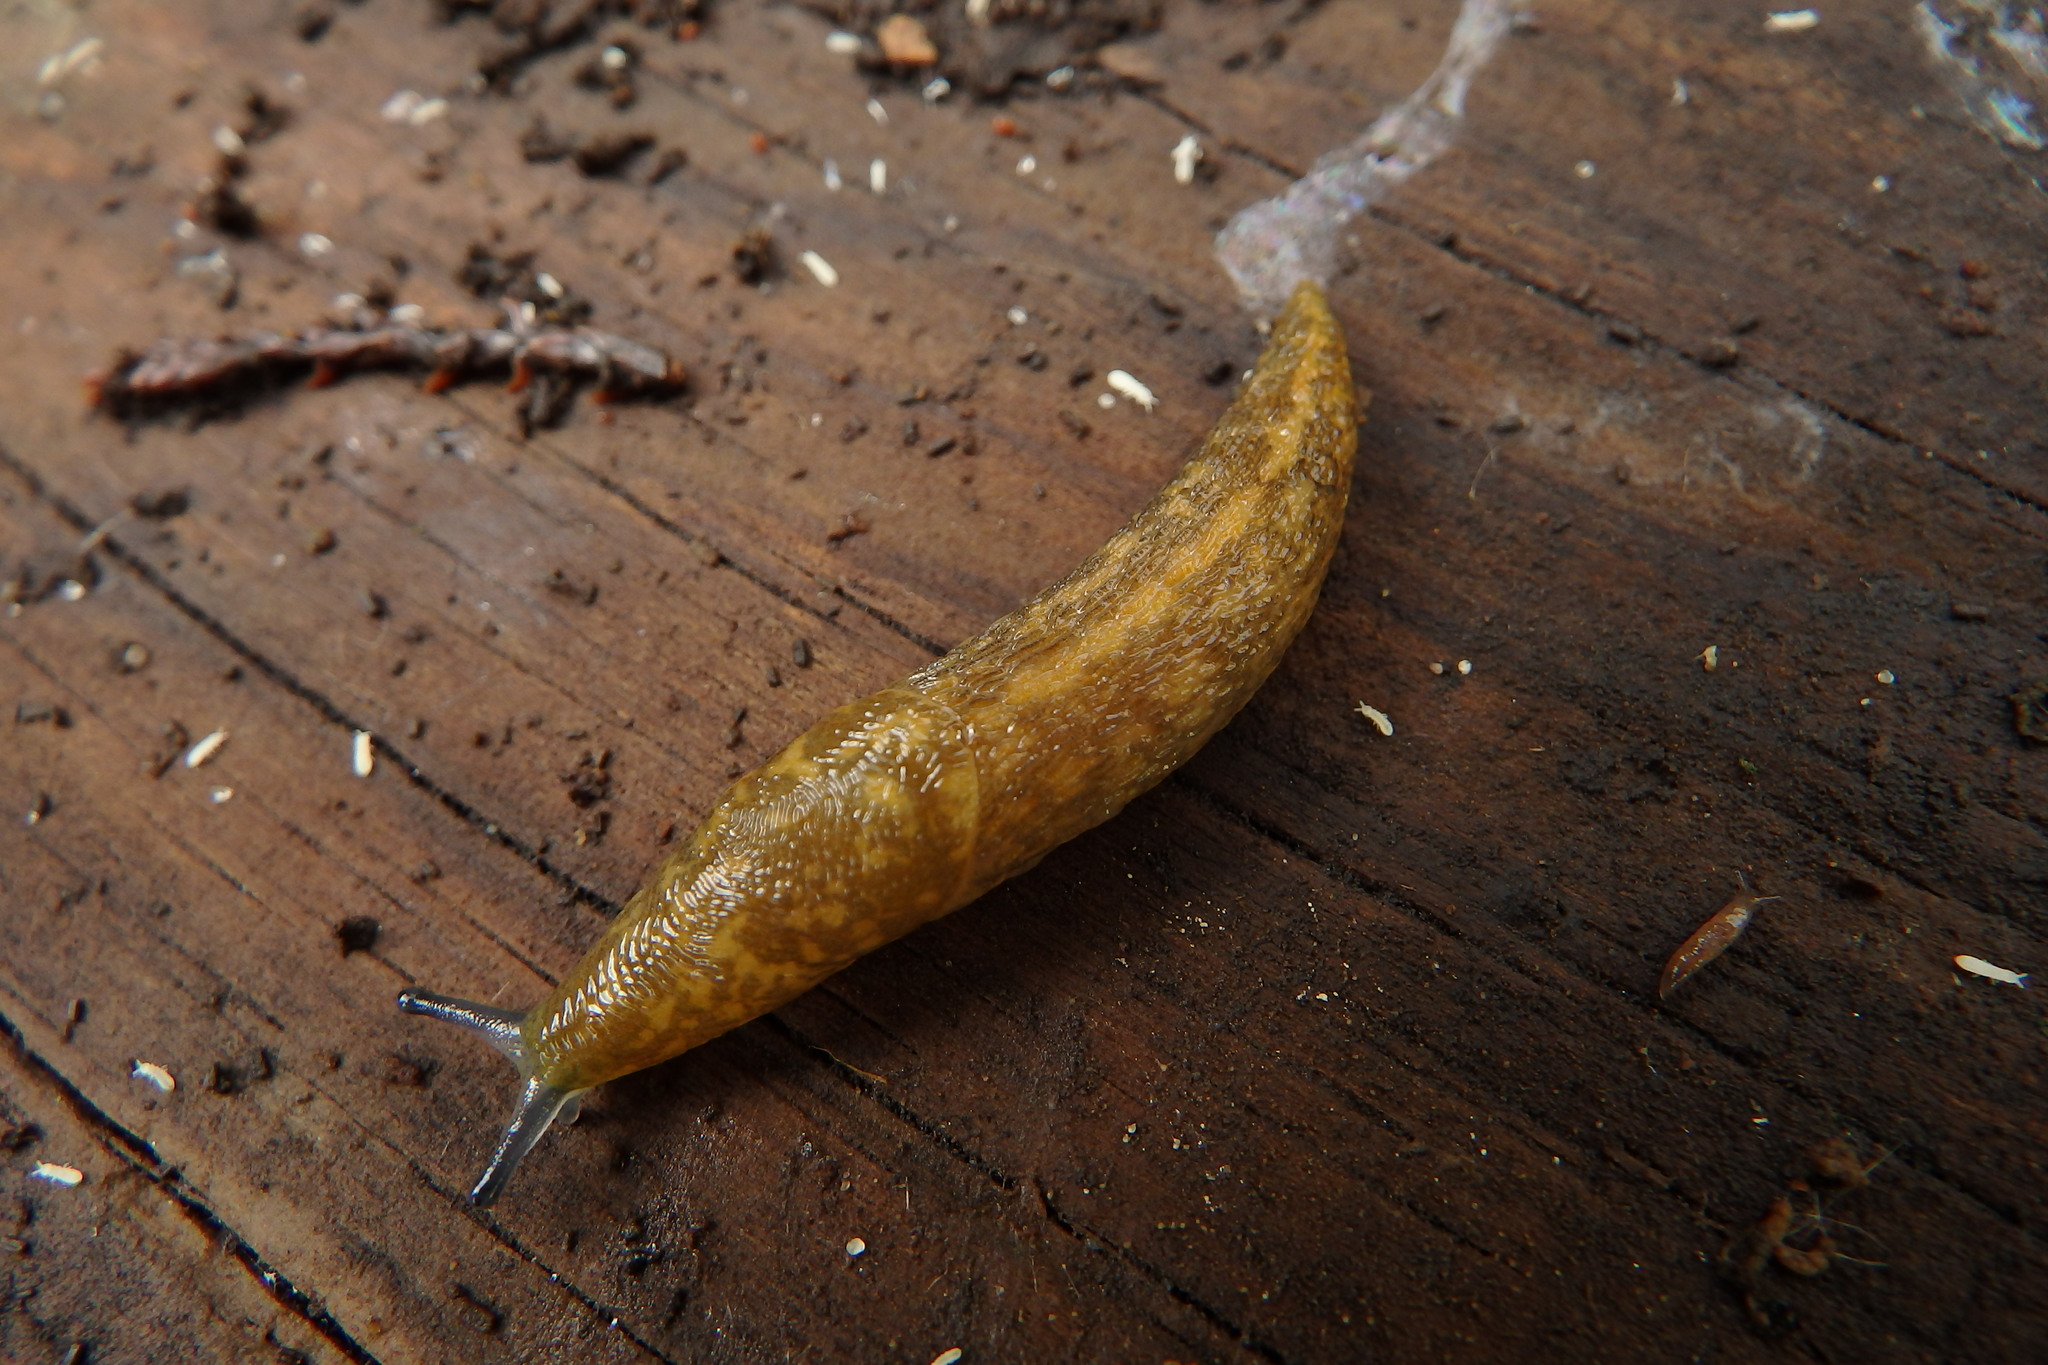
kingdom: Animalia
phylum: Mollusca
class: Gastropoda
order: Stylommatophora
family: Limacidae
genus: Limacus
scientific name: Limacus flavus
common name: Yellow gardenslug
